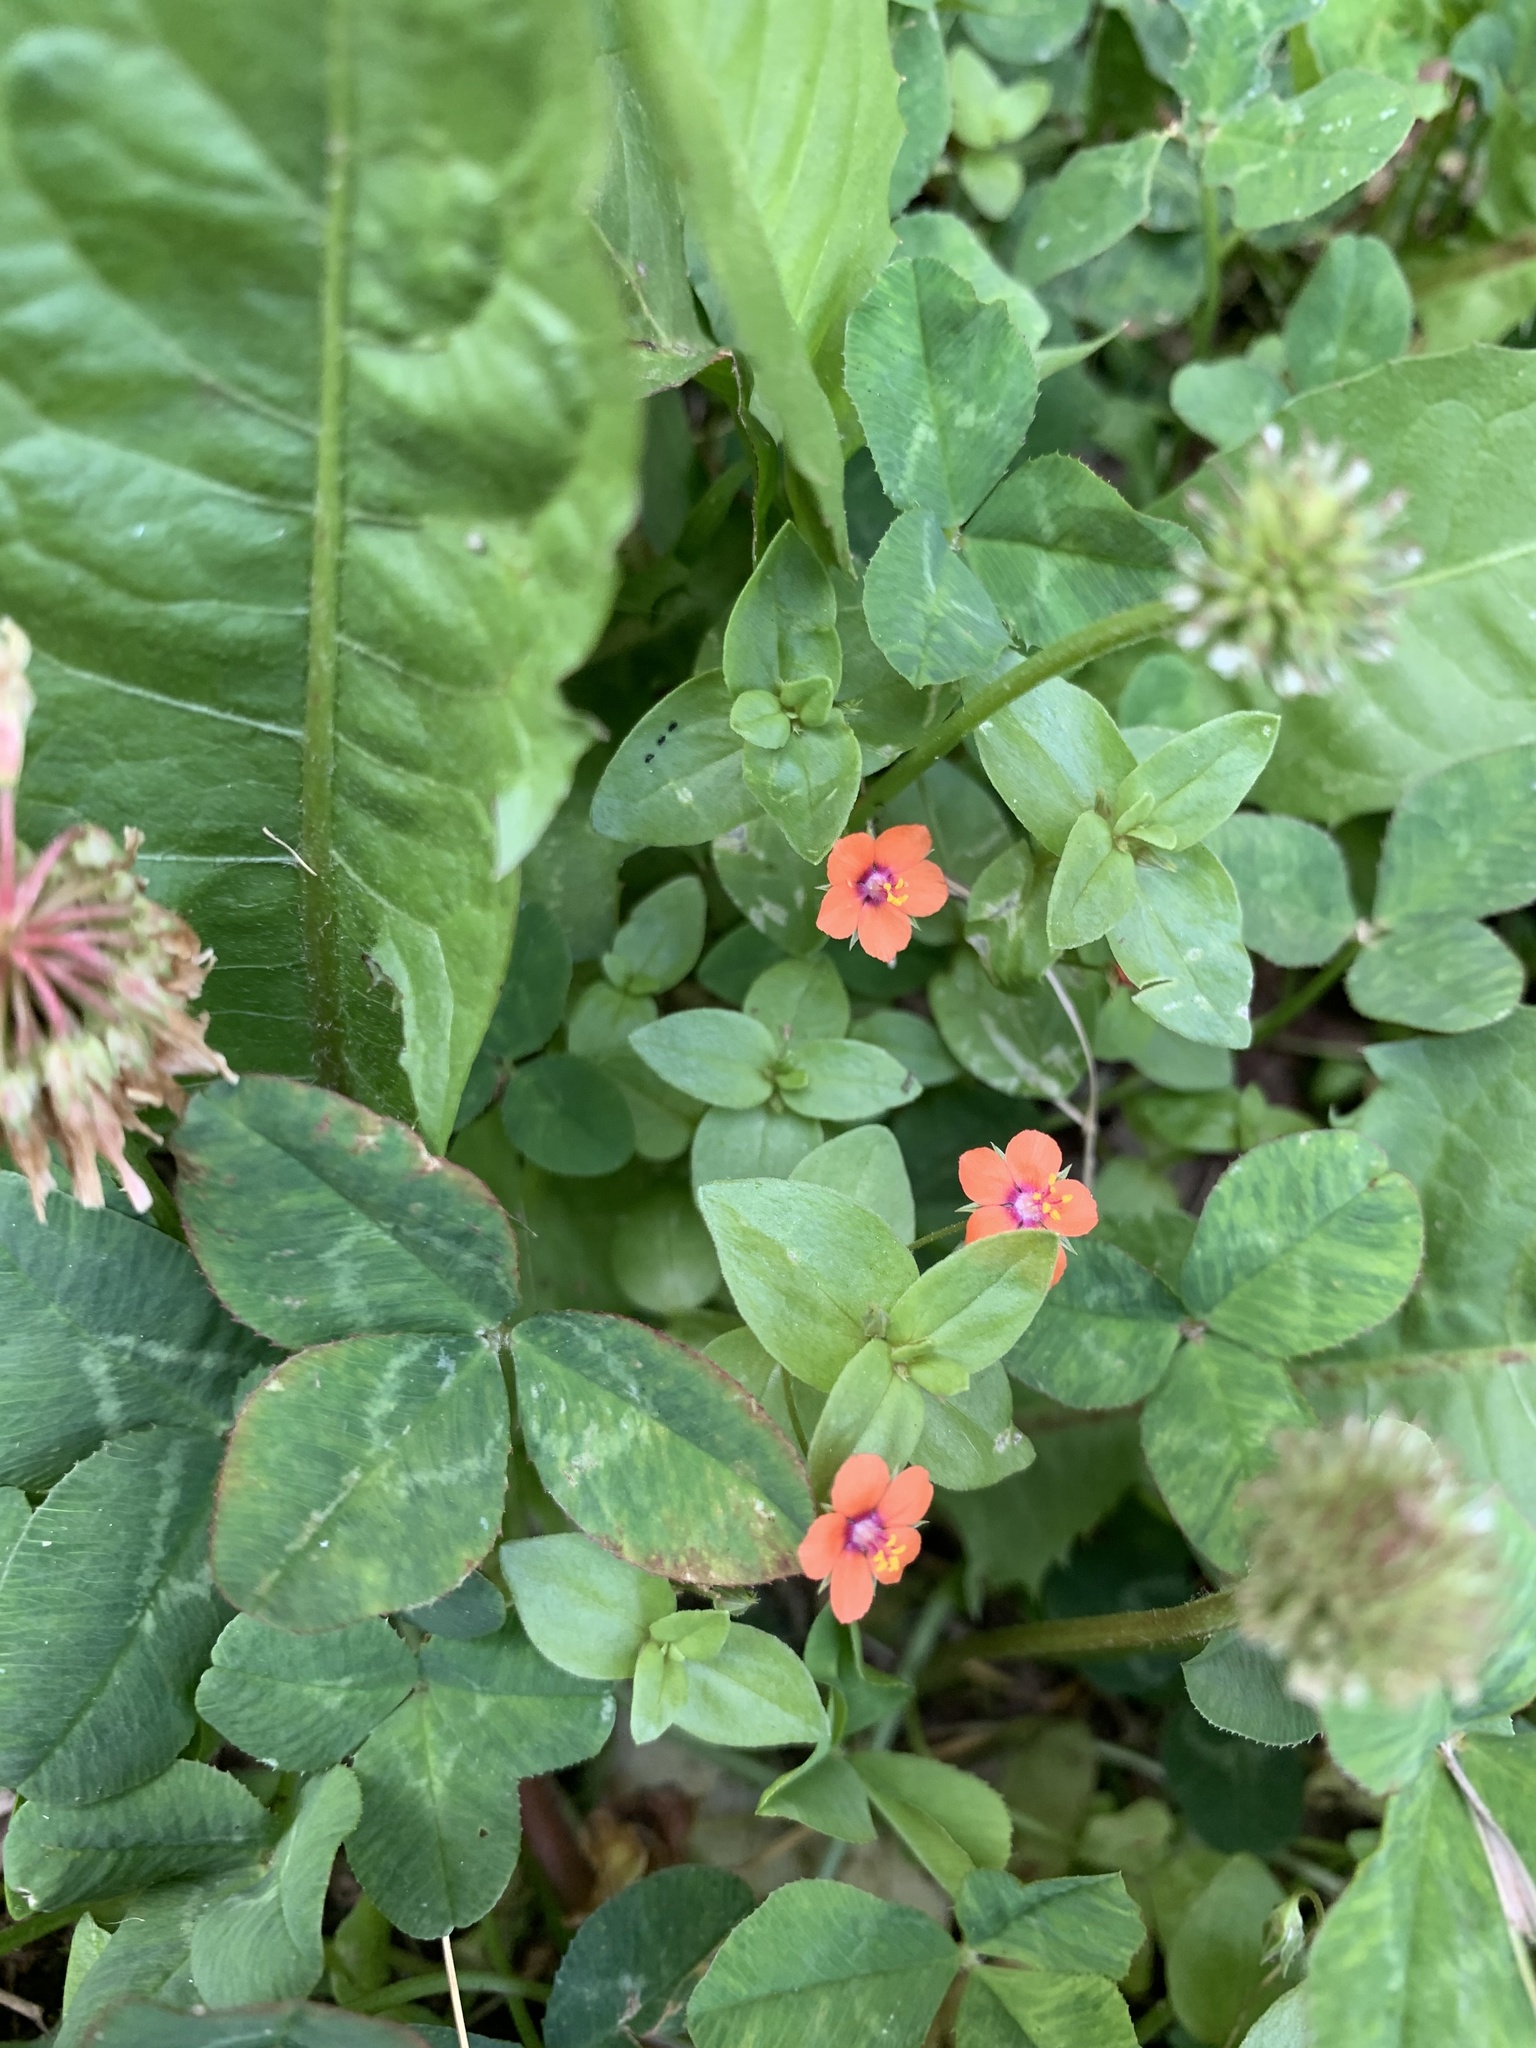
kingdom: Plantae
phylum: Tracheophyta
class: Magnoliopsida
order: Ericales
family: Primulaceae
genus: Lysimachia
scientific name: Lysimachia arvensis
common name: Scarlet pimpernel
